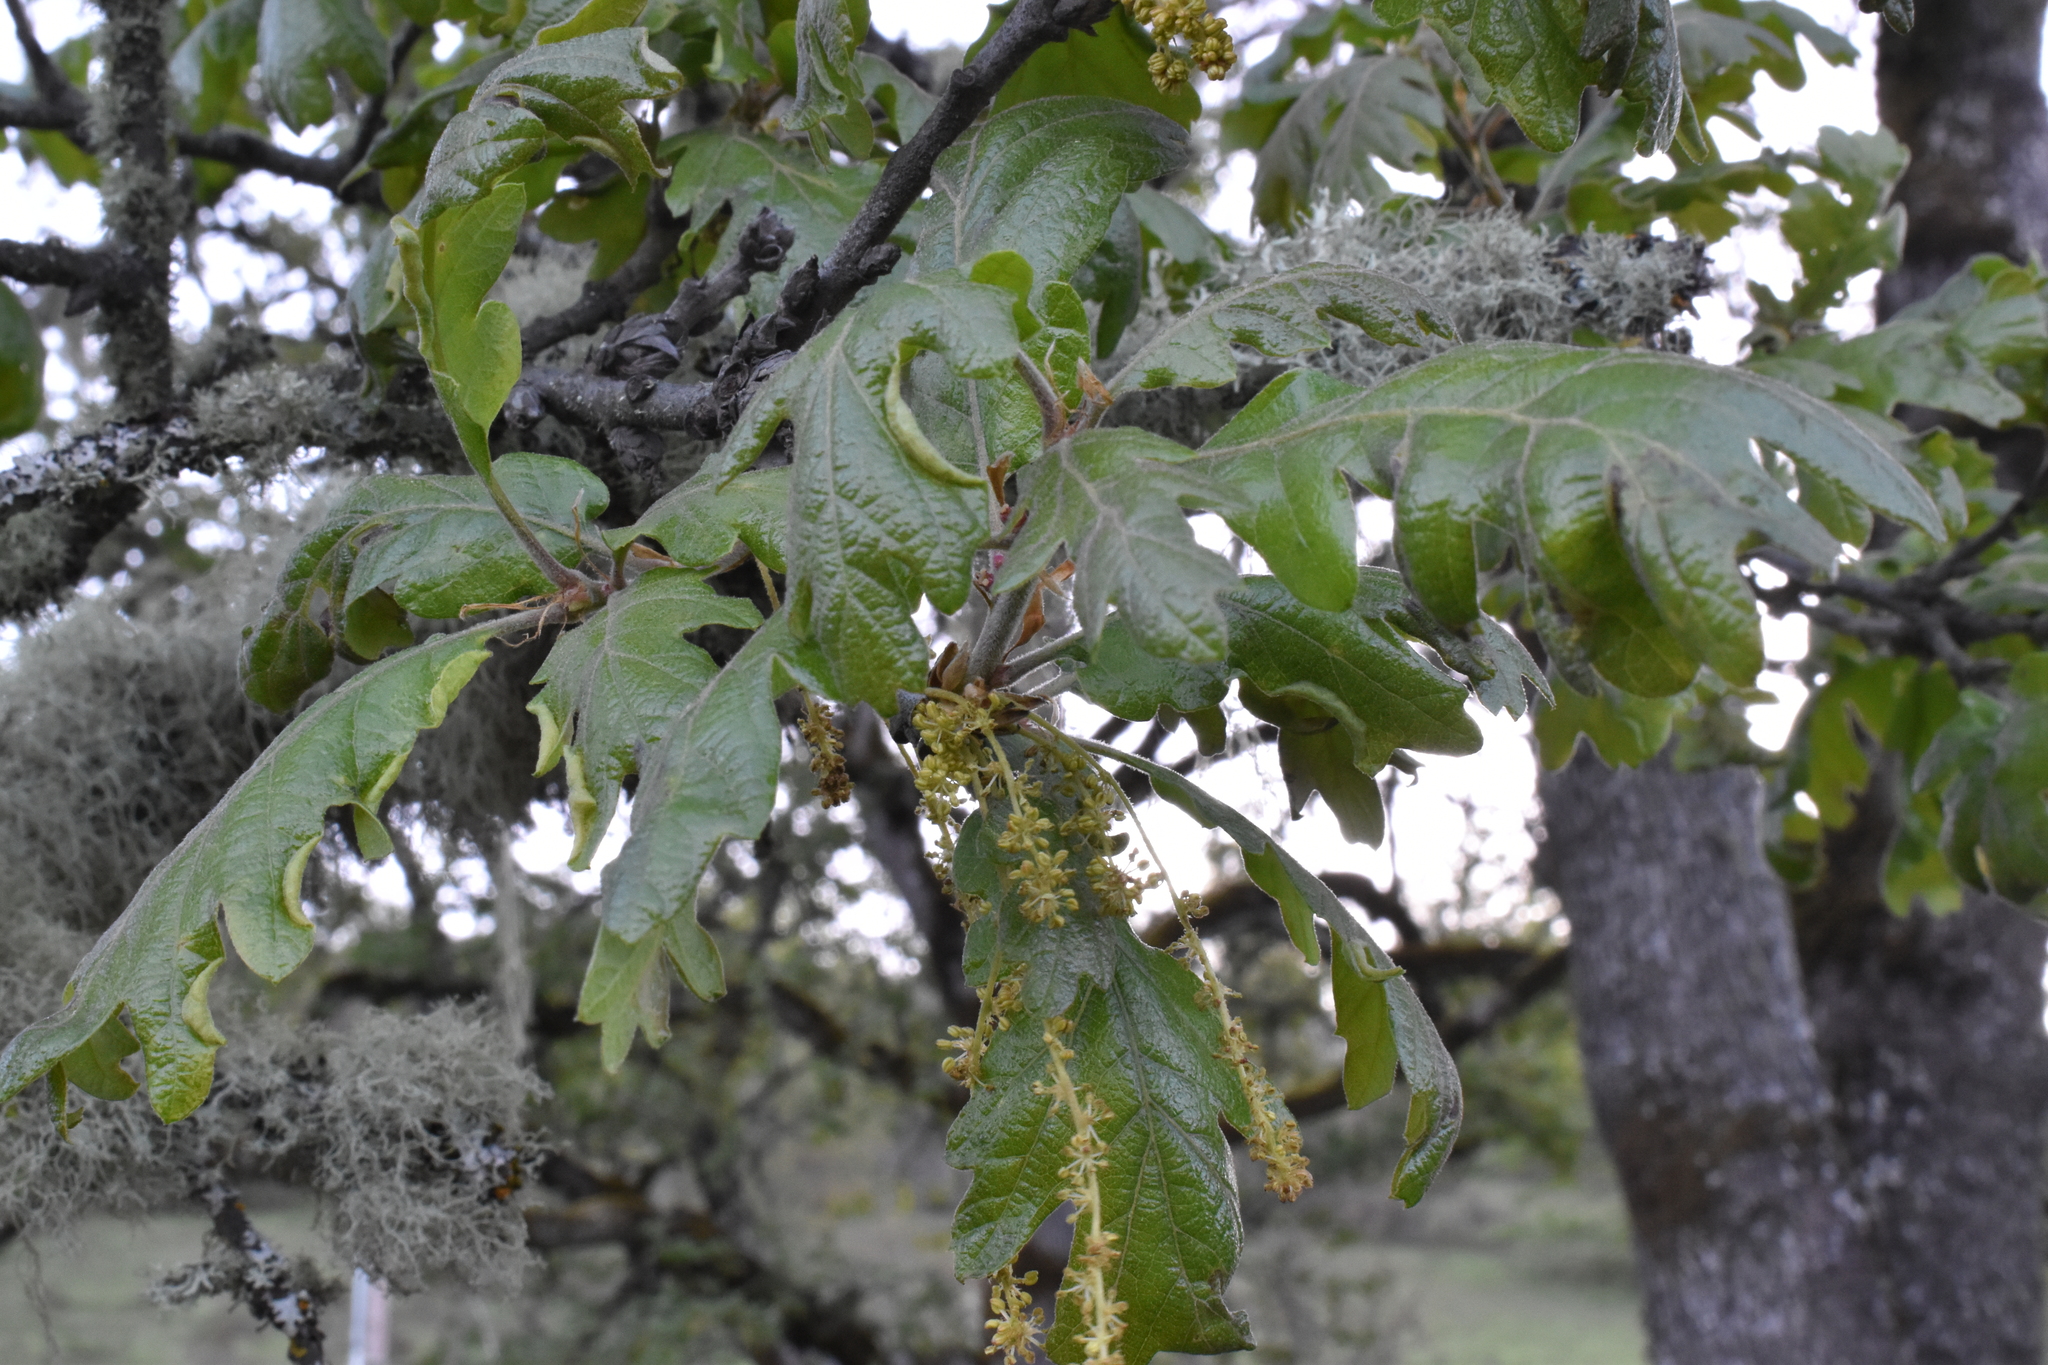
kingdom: Plantae
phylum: Tracheophyta
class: Magnoliopsida
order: Fagales
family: Fagaceae
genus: Quercus
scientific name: Quercus garryana
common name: Garry oak
